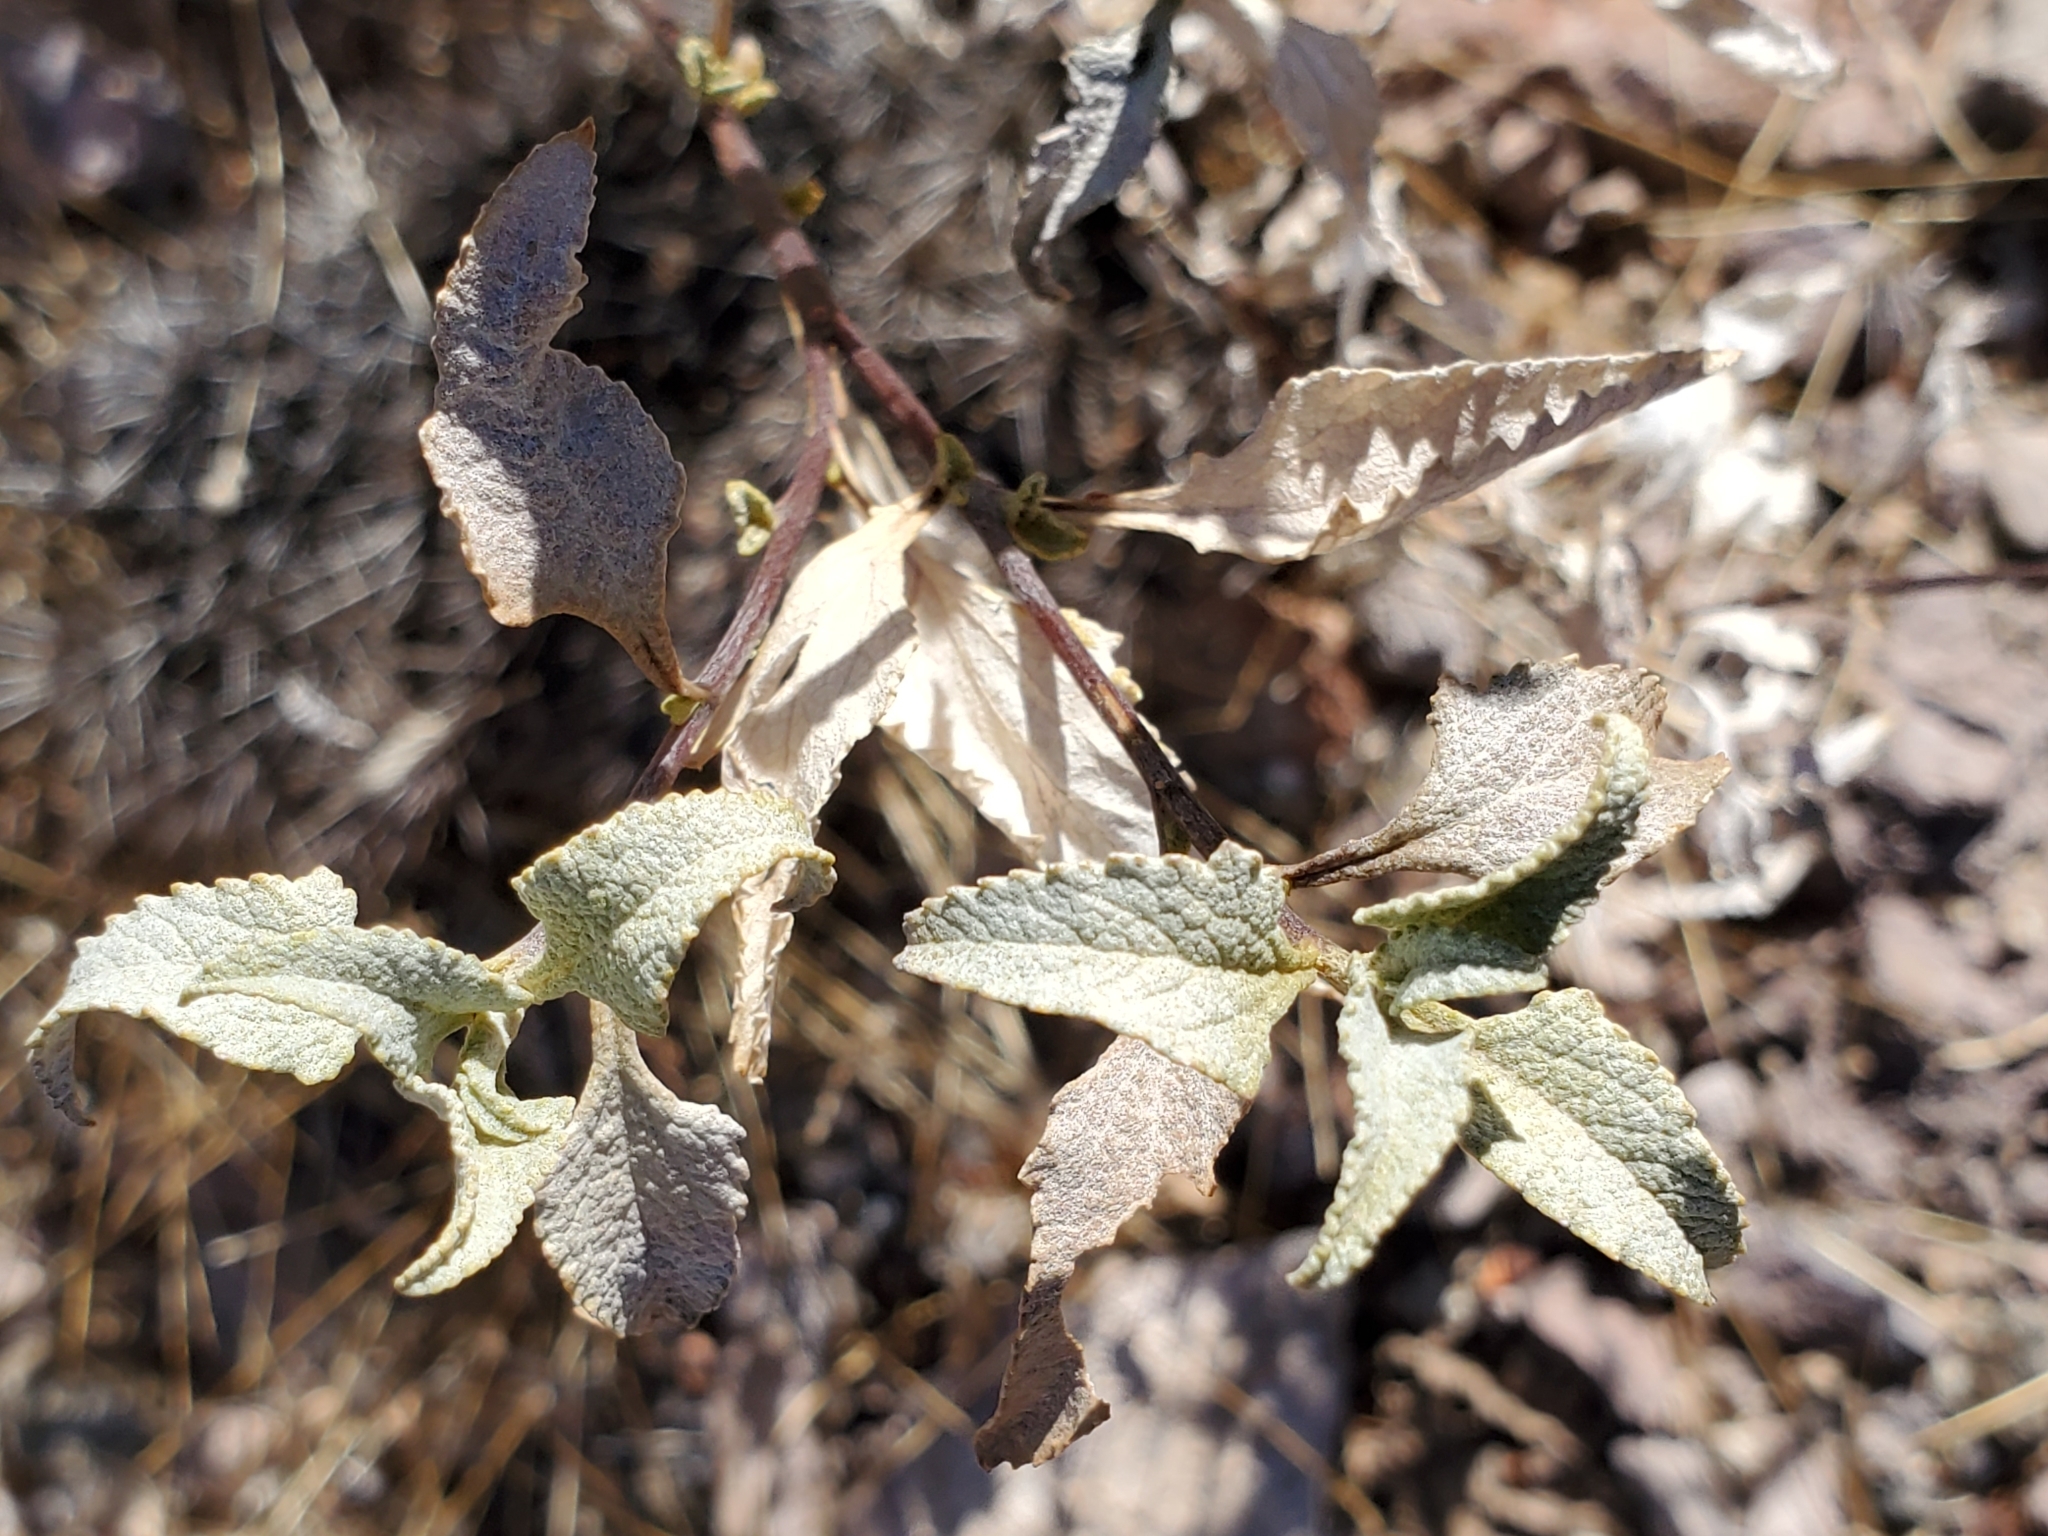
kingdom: Plantae
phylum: Tracheophyta
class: Magnoliopsida
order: Asterales
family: Asteraceae
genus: Ambrosia
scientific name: Ambrosia deltoidea
